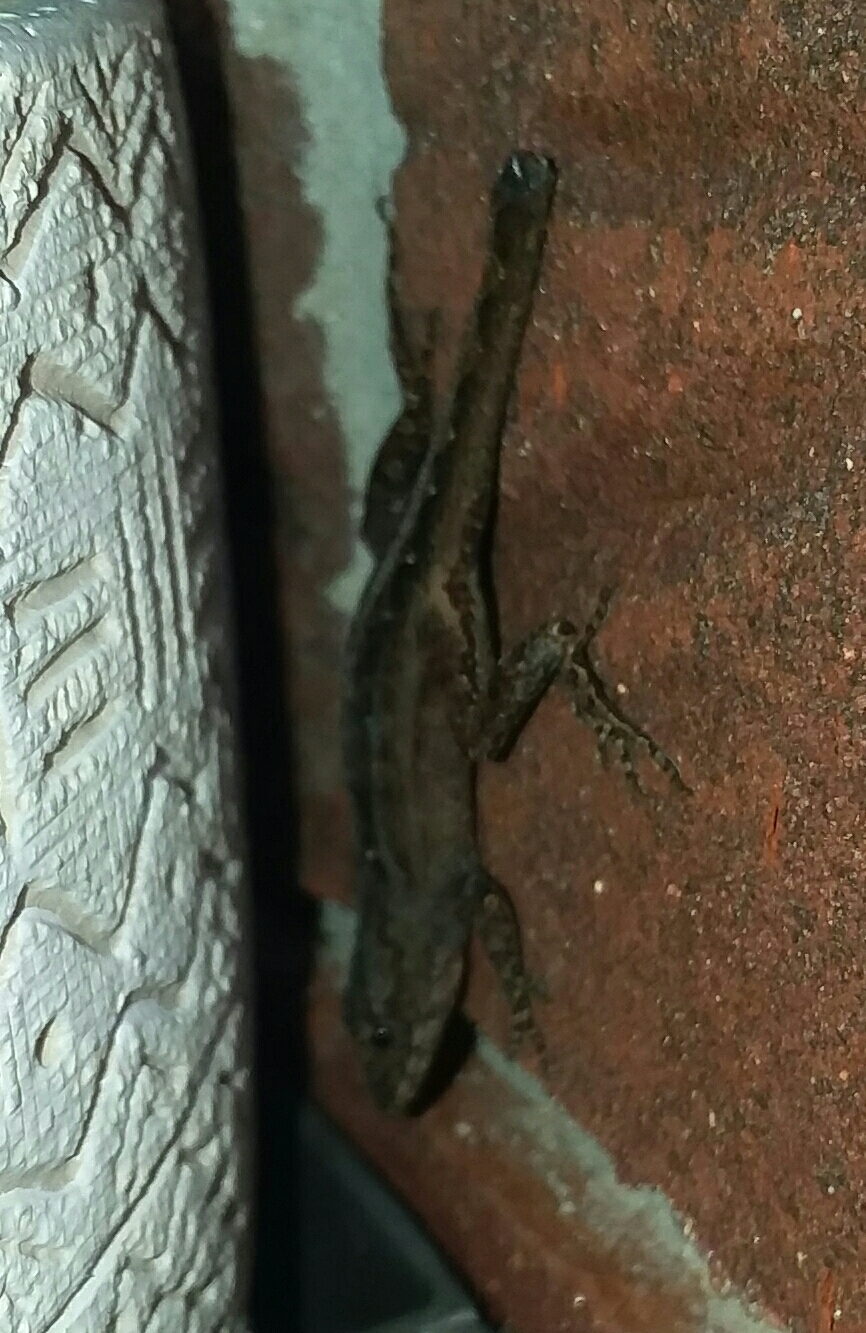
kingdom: Animalia
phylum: Chordata
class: Squamata
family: Dactyloidae
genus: Anolis
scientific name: Anolis sagrei
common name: Brown anole
